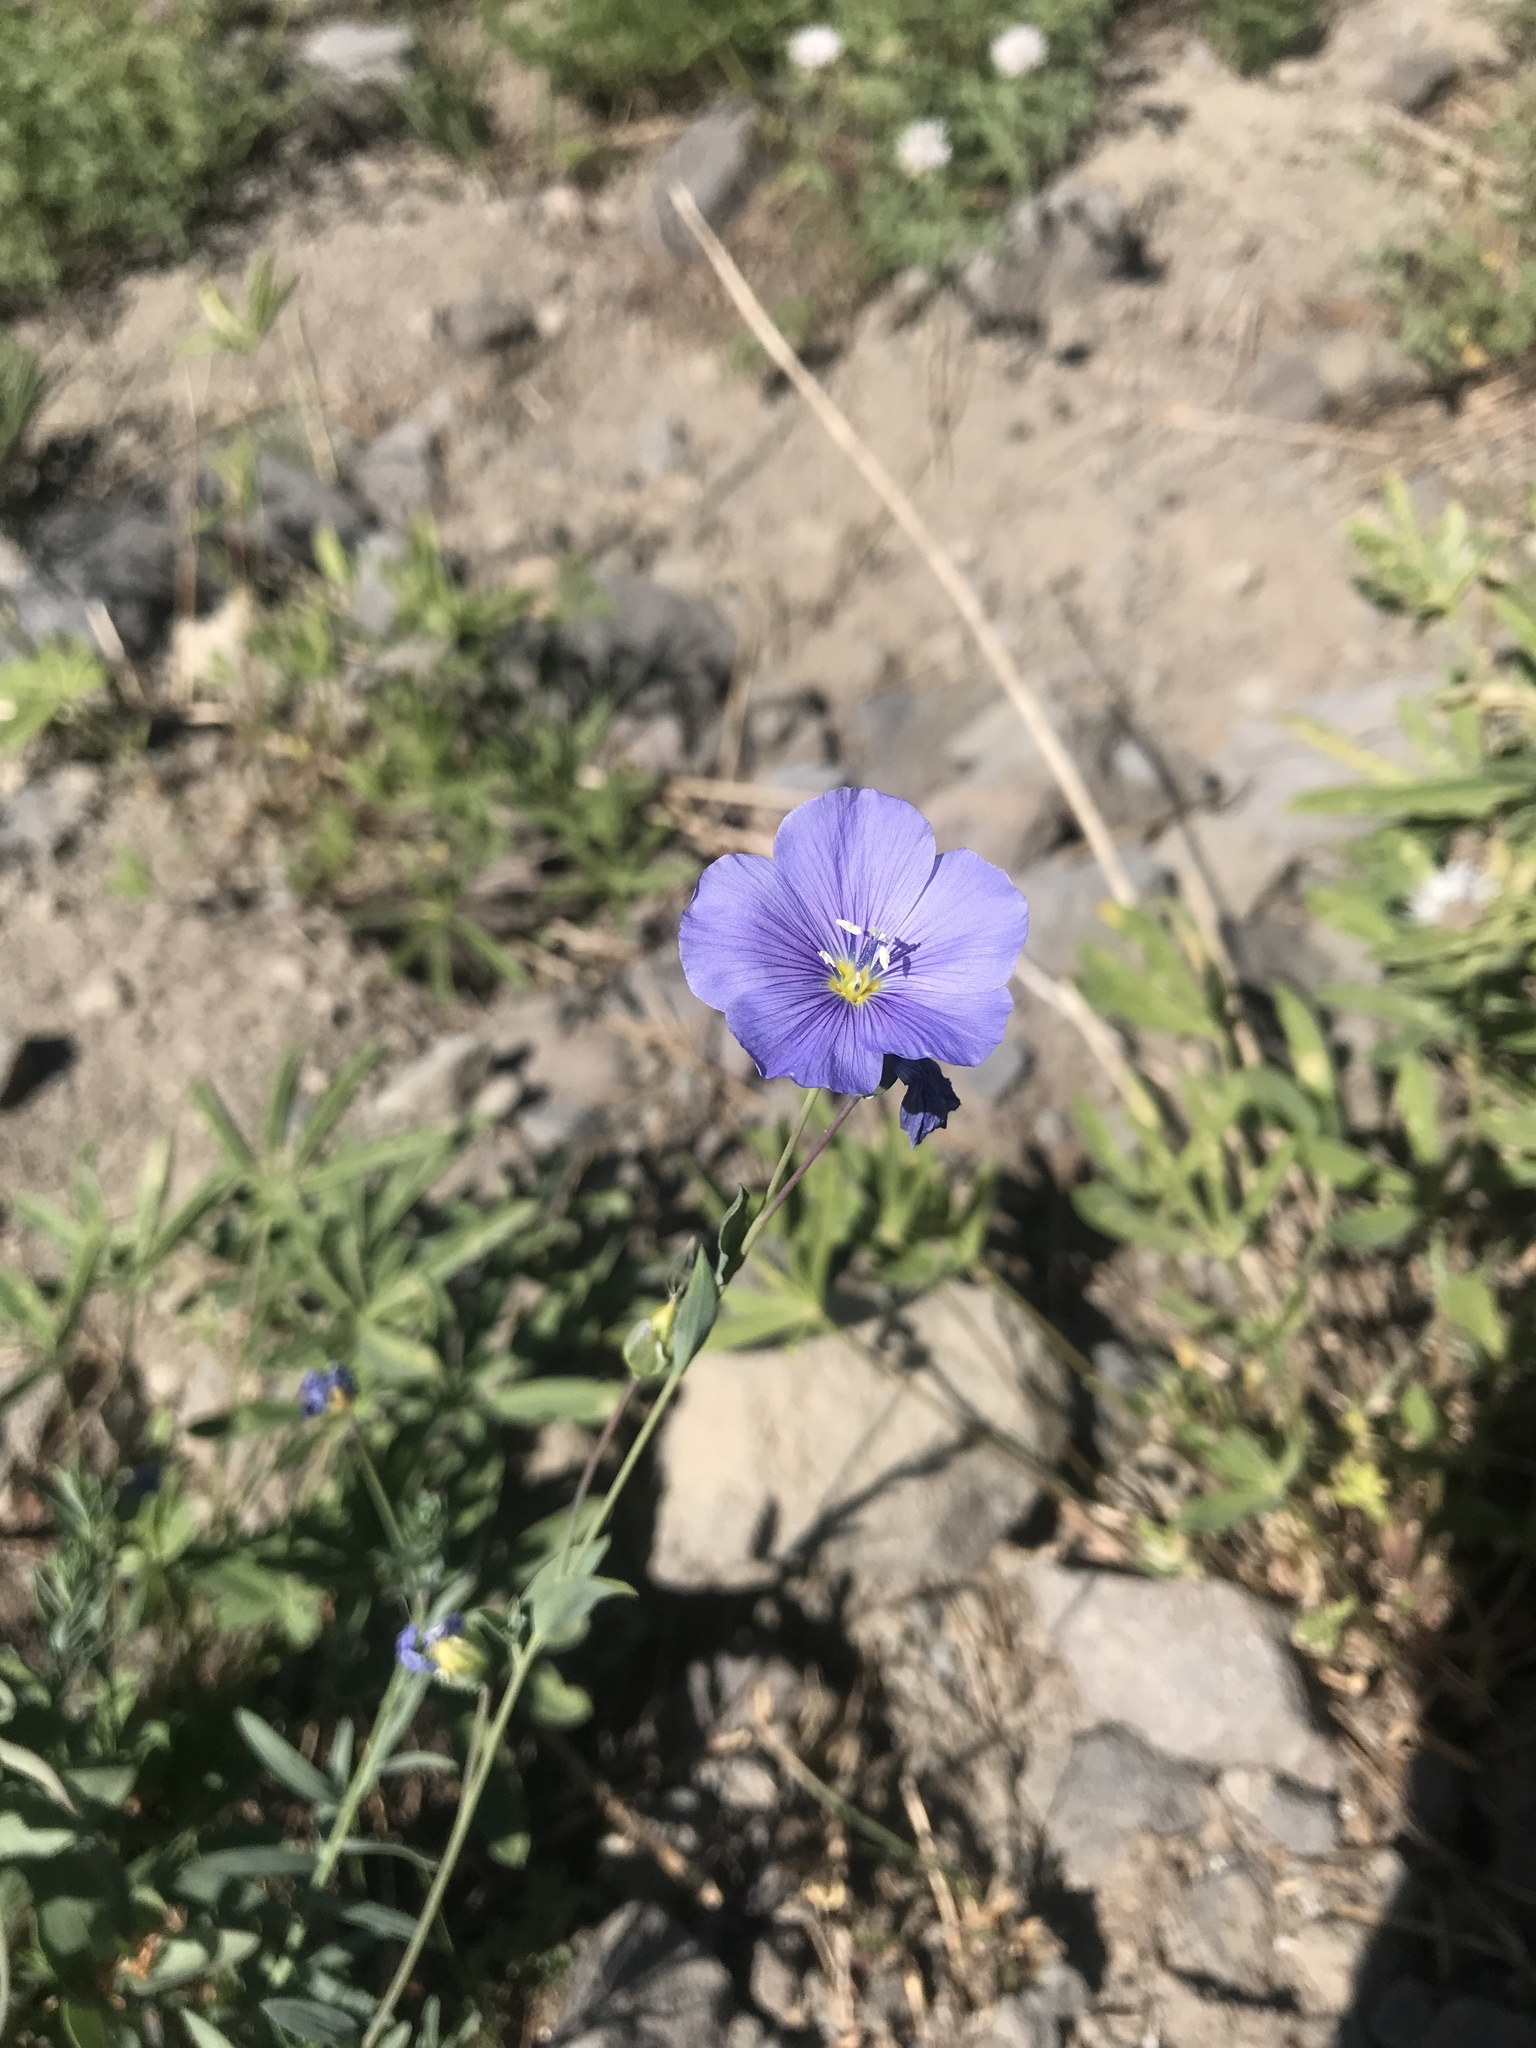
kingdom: Plantae
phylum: Tracheophyta
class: Magnoliopsida
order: Malpighiales
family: Linaceae
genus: Linum
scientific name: Linum lewisii
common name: Prairie flax
